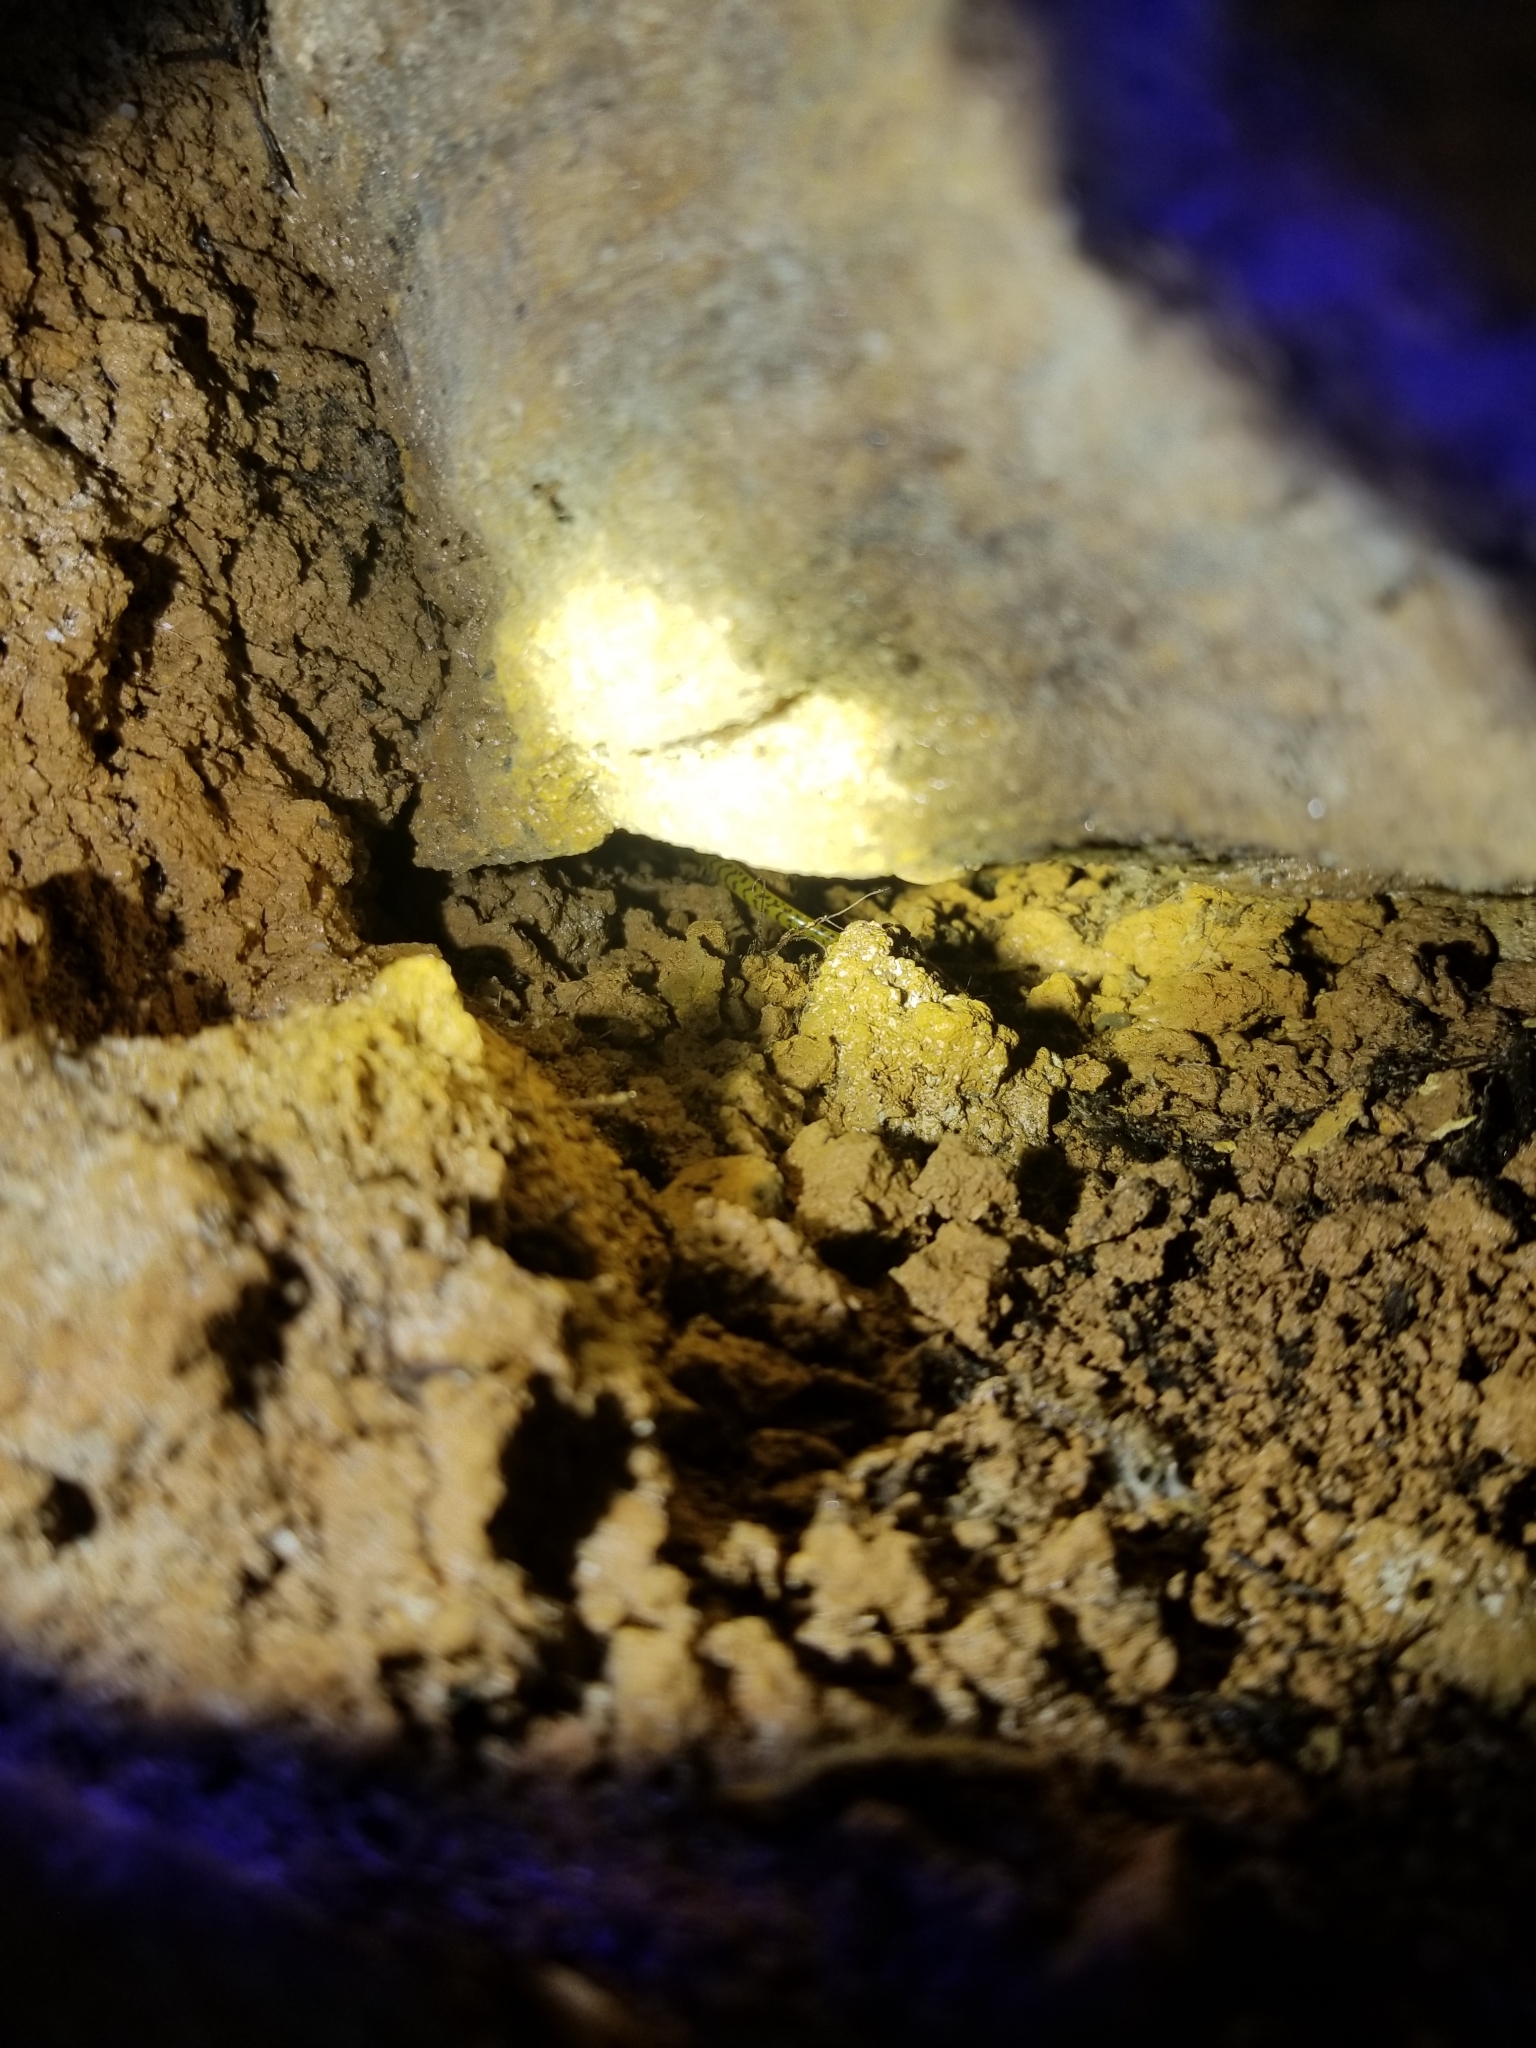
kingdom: Animalia
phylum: Chordata
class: Amphibia
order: Caudata
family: Plethodontidae
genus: Eurycea
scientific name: Eurycea longicauda
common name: Long-tailed salamander
